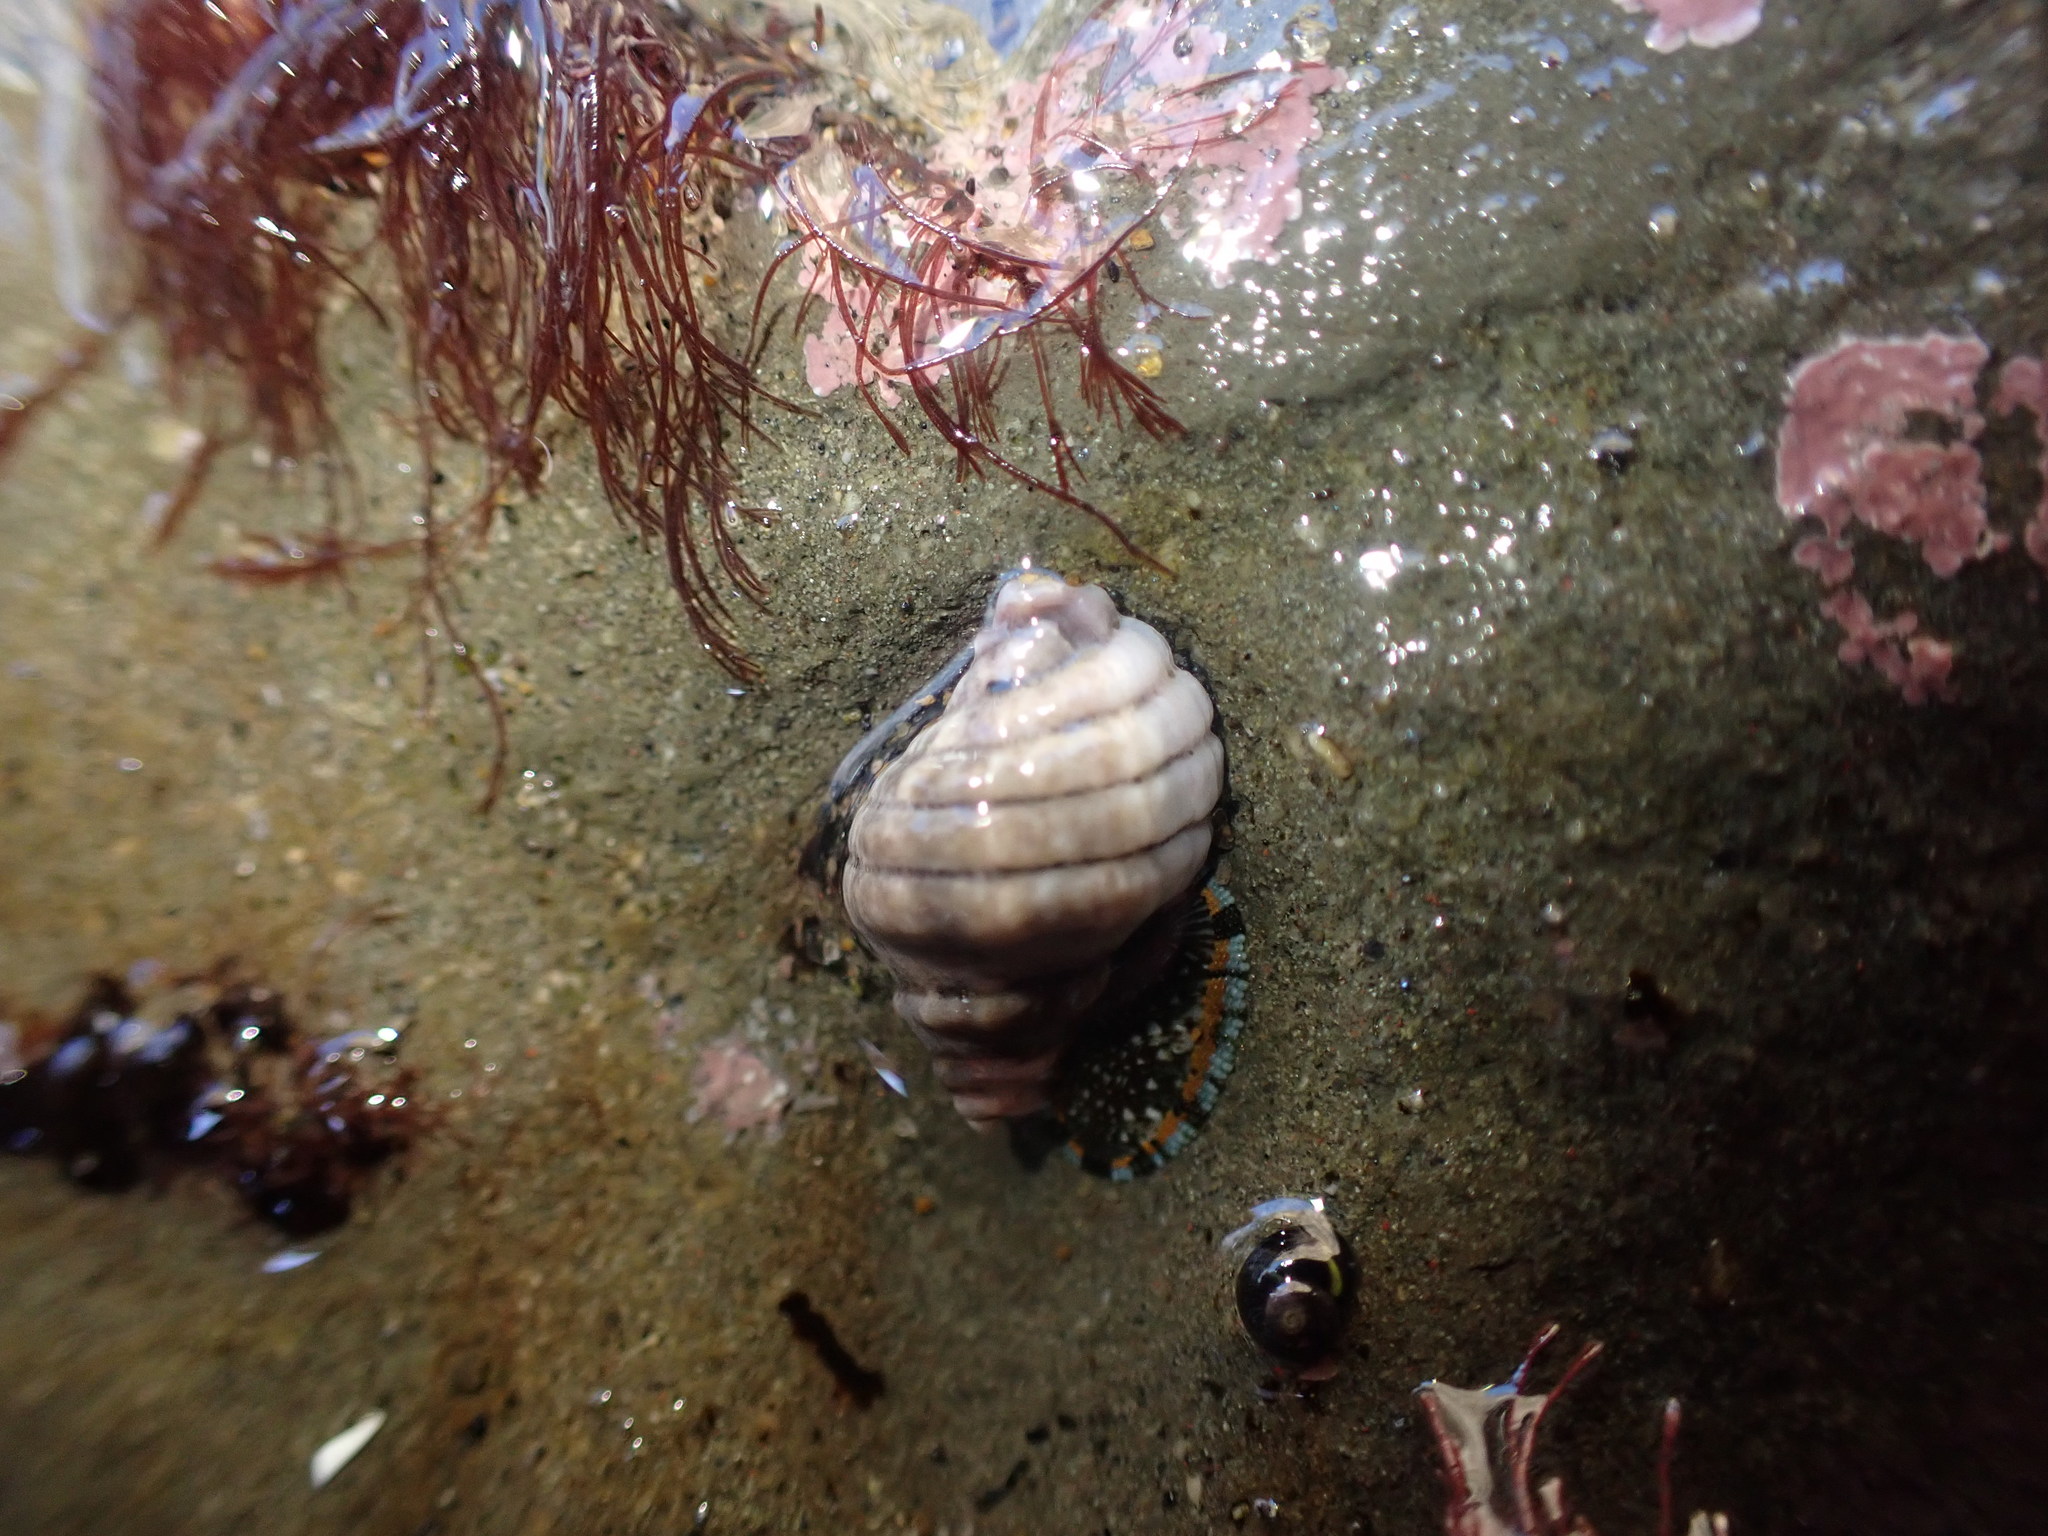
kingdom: Animalia
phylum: Mollusca
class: Gastropoda
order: Neogastropoda
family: Muricidae
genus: Paratrophon
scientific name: Paratrophon cheesemani
